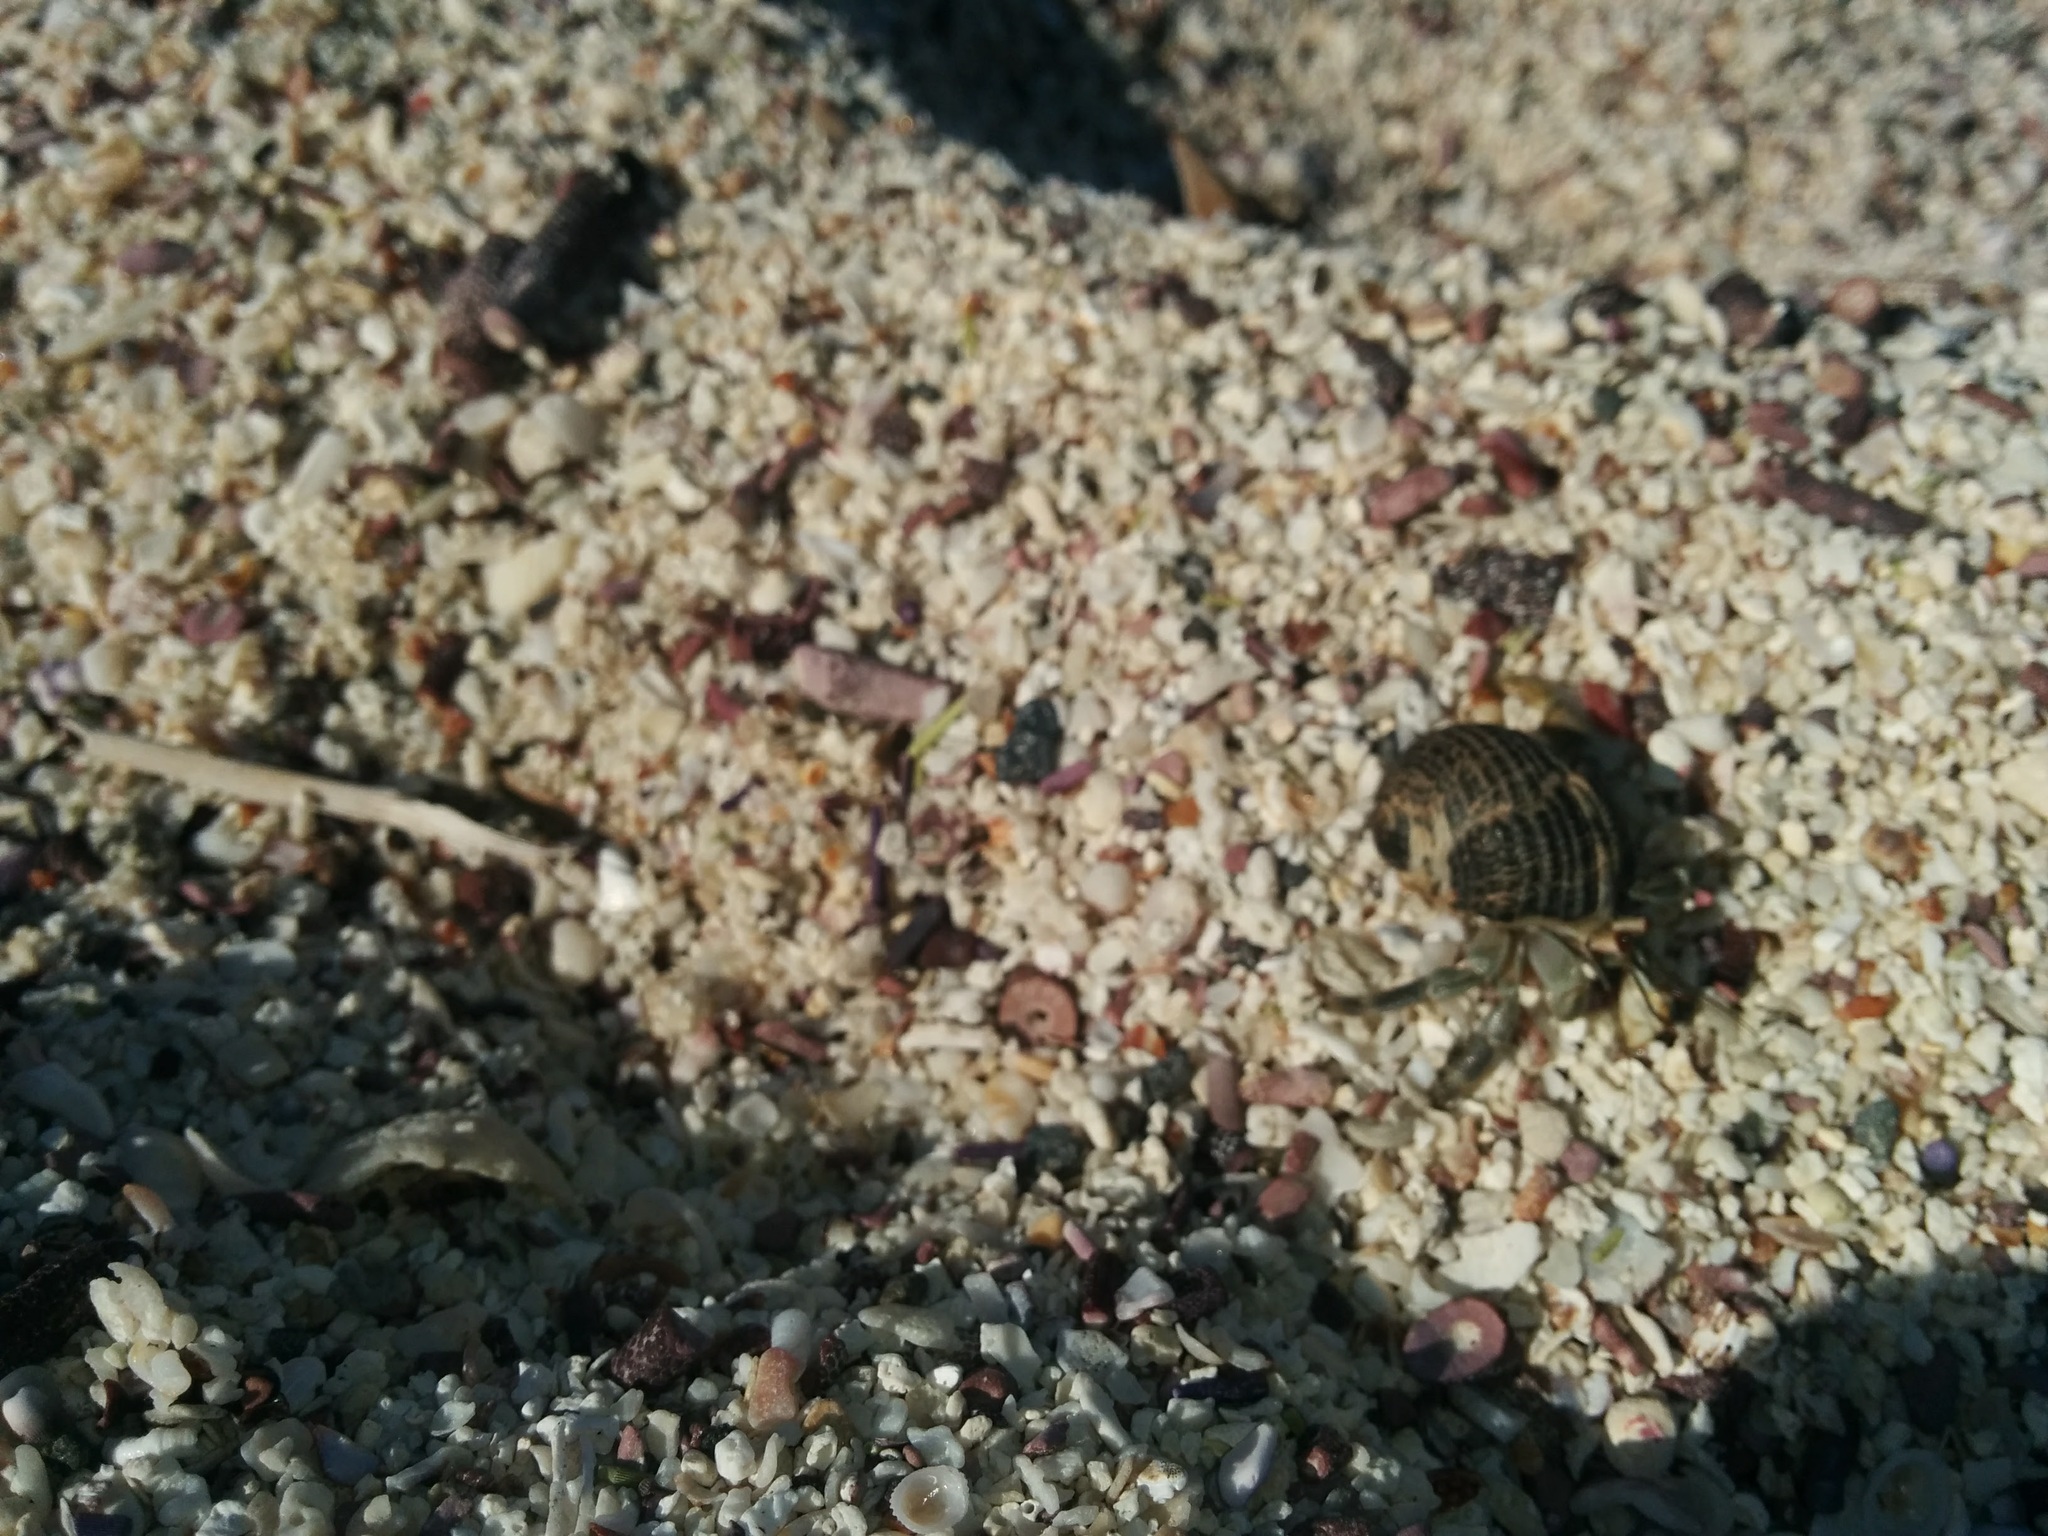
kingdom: Animalia
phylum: Arthropoda
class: Malacostraca
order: Decapoda
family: Coenobitidae
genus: Coenobita
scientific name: Coenobita compressus
